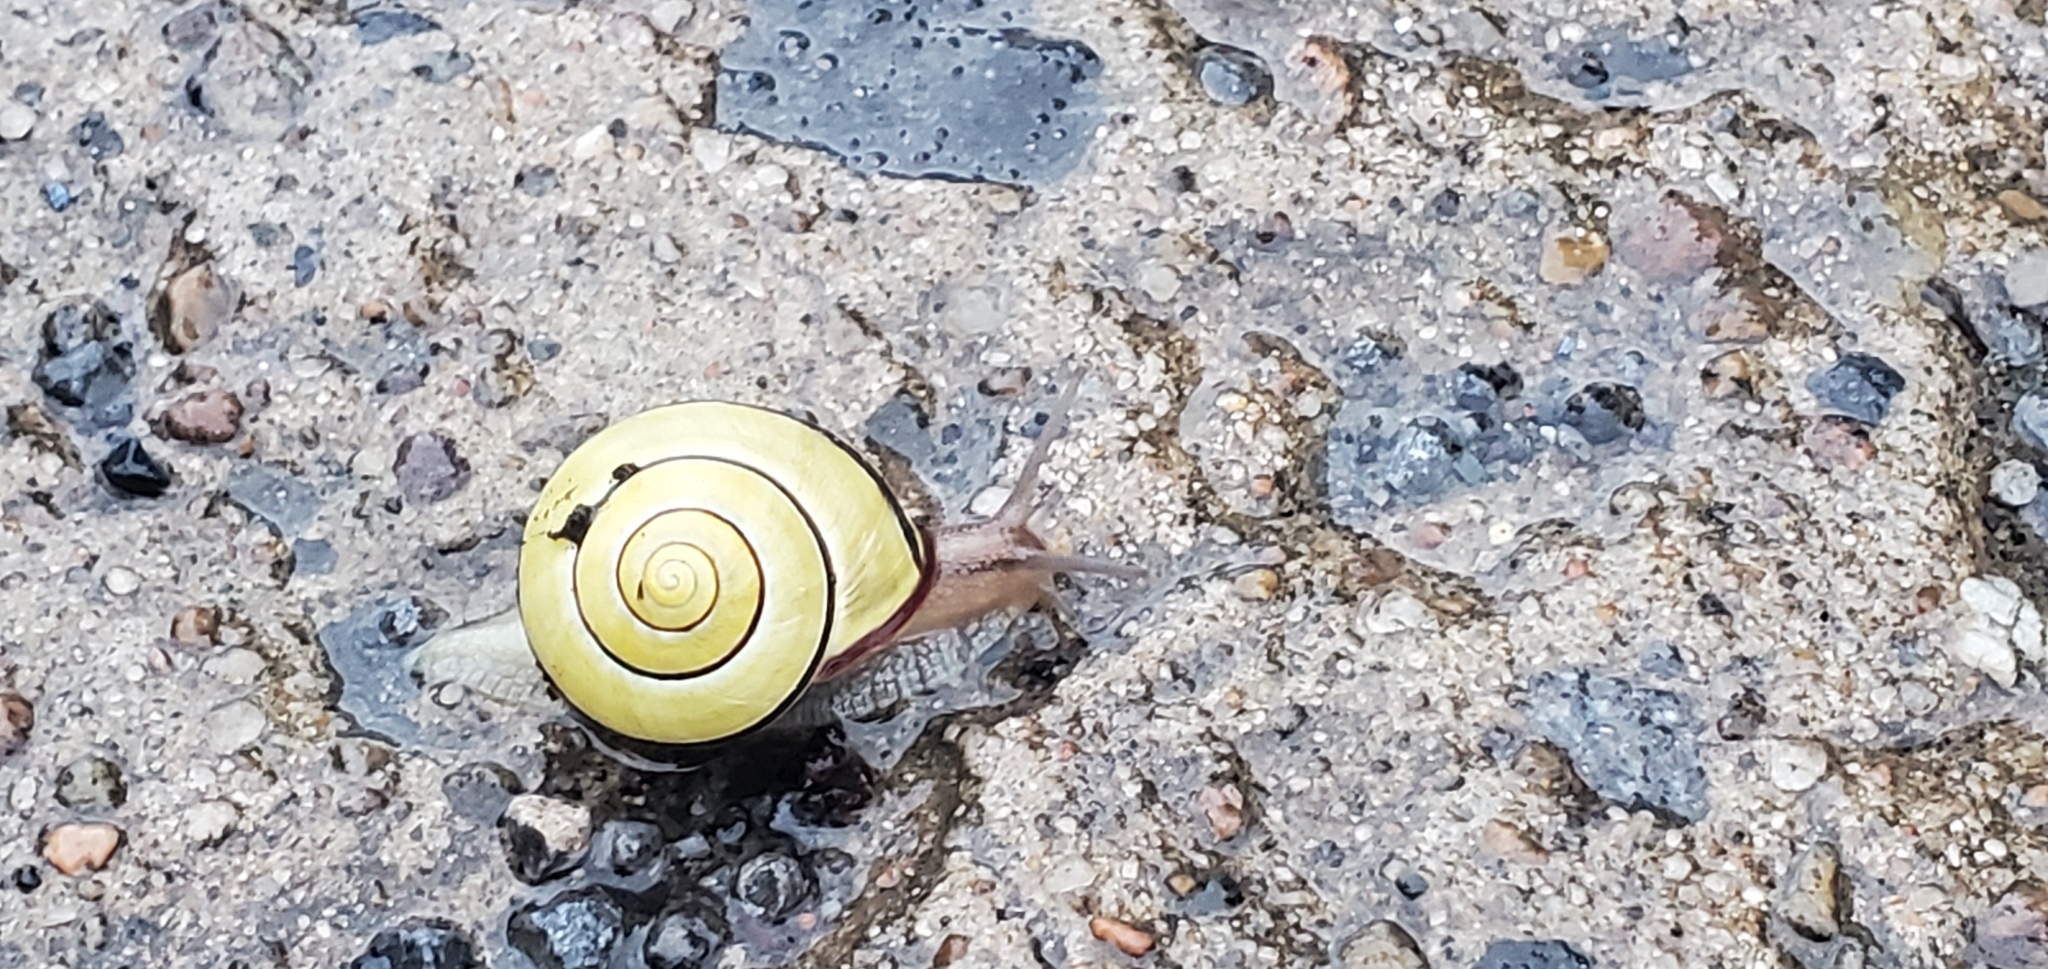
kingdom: Animalia
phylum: Mollusca
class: Gastropoda
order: Stylommatophora
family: Helicidae
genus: Cepaea
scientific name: Cepaea nemoralis
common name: Grovesnail
